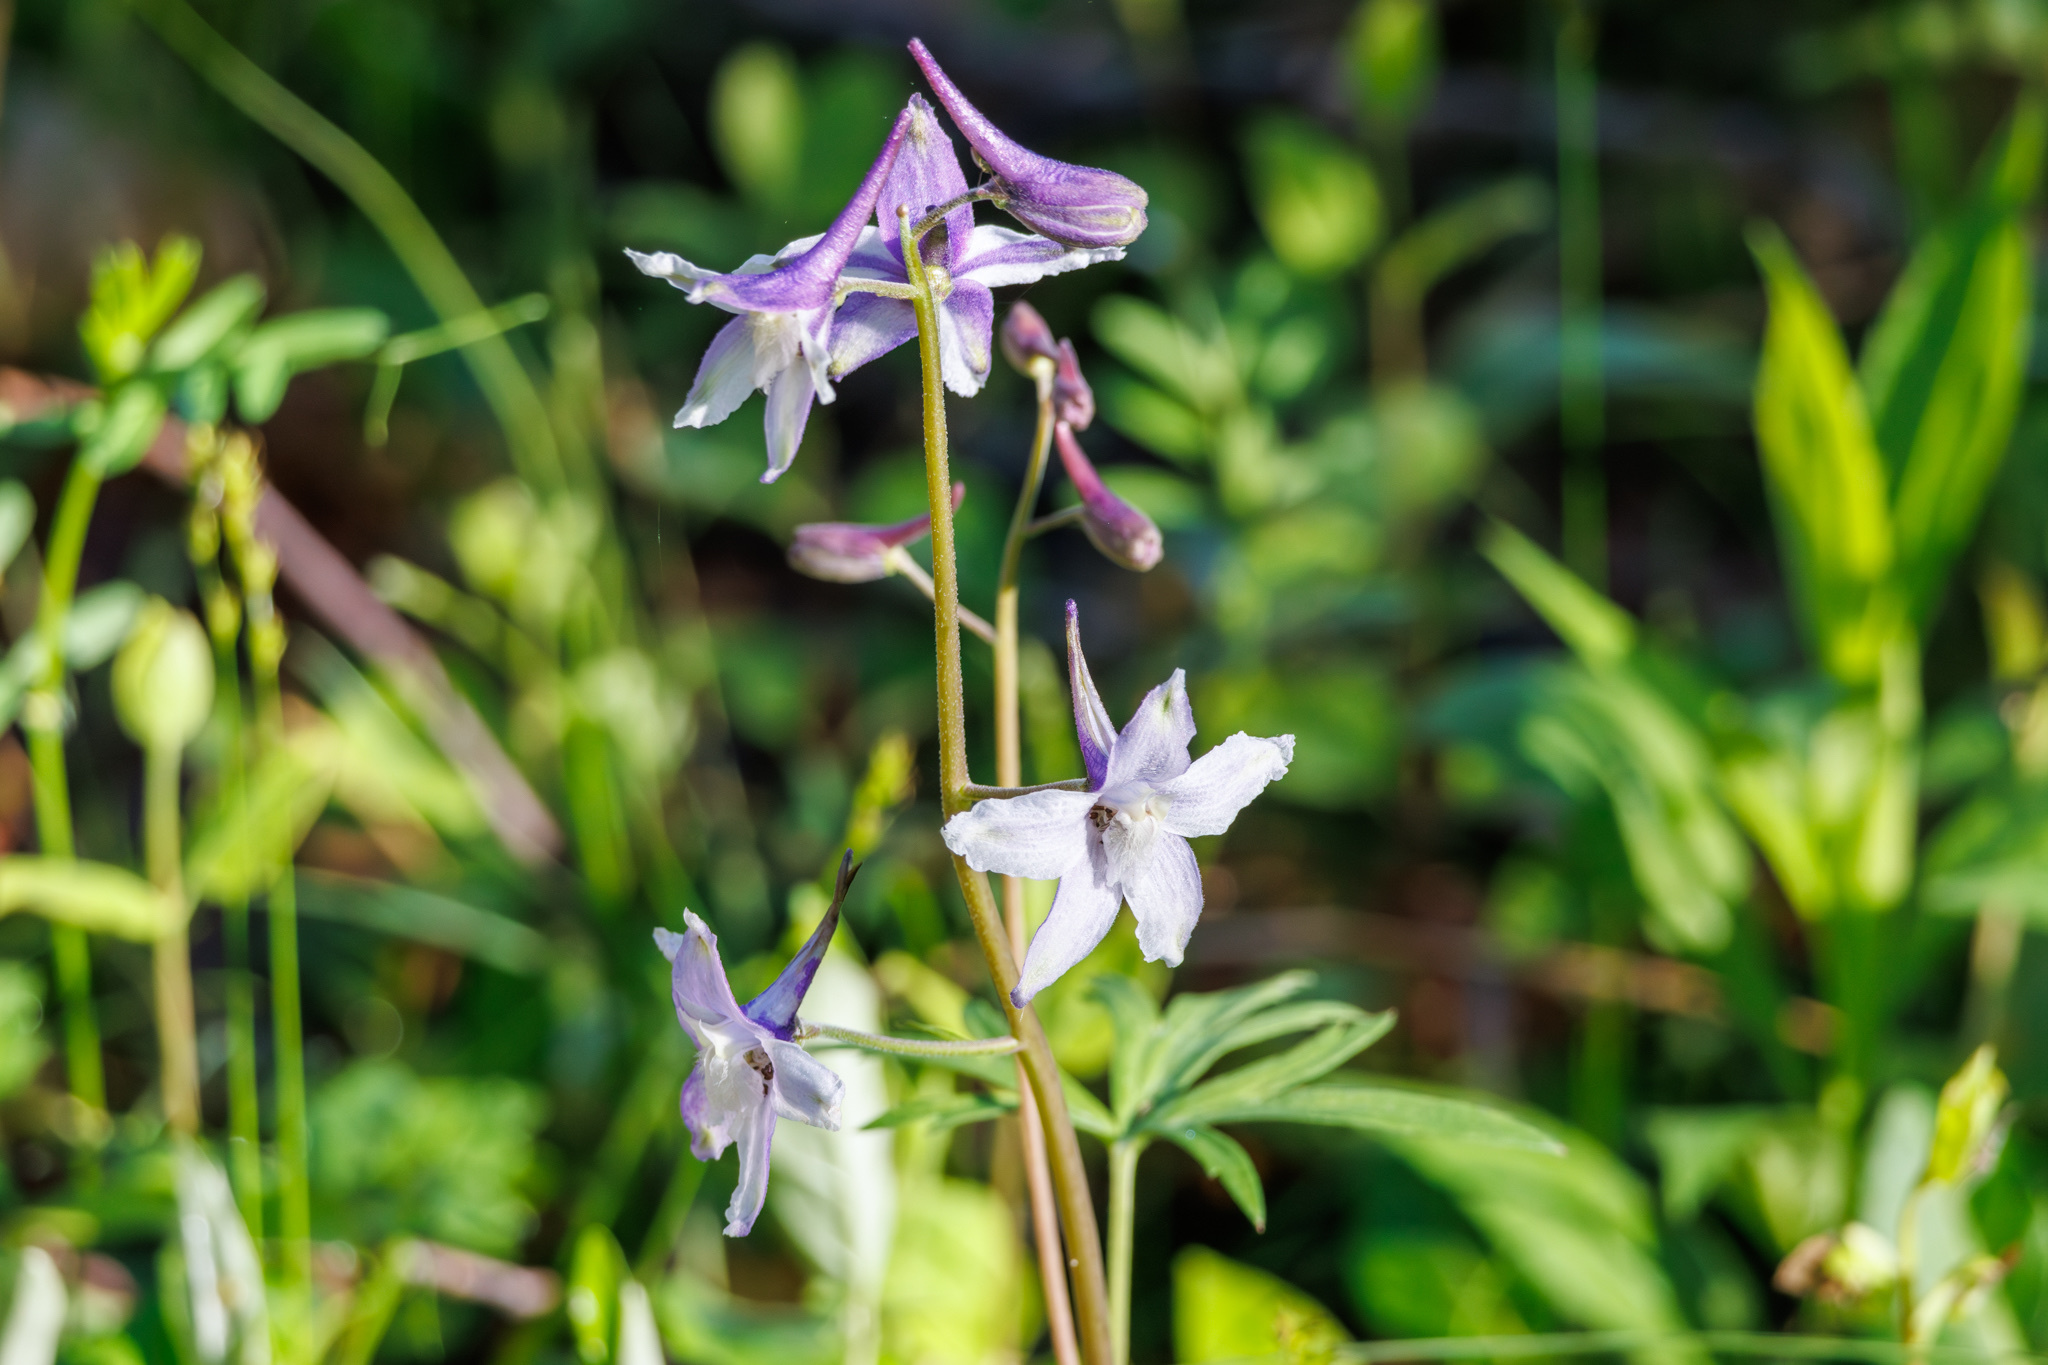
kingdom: Plantae
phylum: Tracheophyta
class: Magnoliopsida
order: Ranunculales
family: Ranunculaceae
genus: Delphinium
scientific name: Delphinium tricorne
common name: Dwarf larkspur
